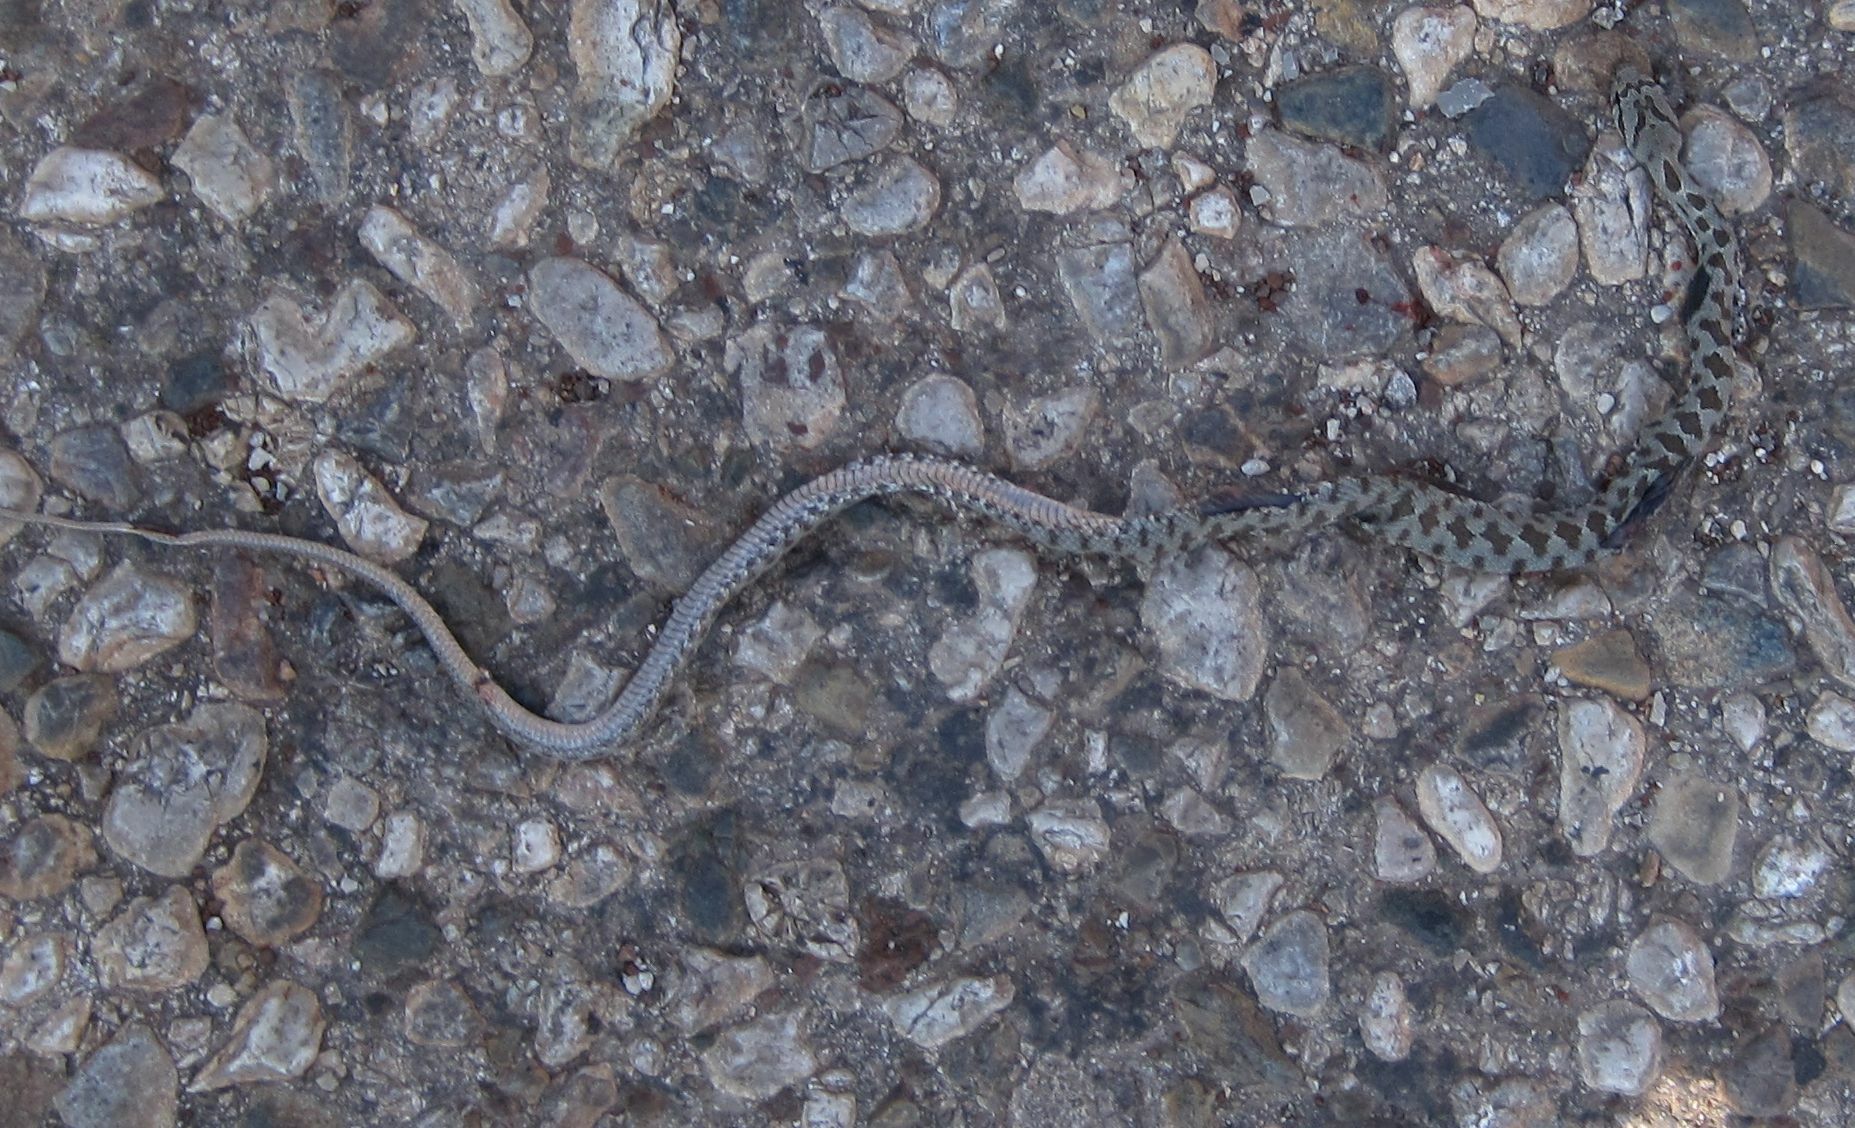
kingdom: Animalia
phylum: Chordata
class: Squamata
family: Colubridae
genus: Hemorrhois
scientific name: Hemorrhois nummifer
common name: Asian racer
